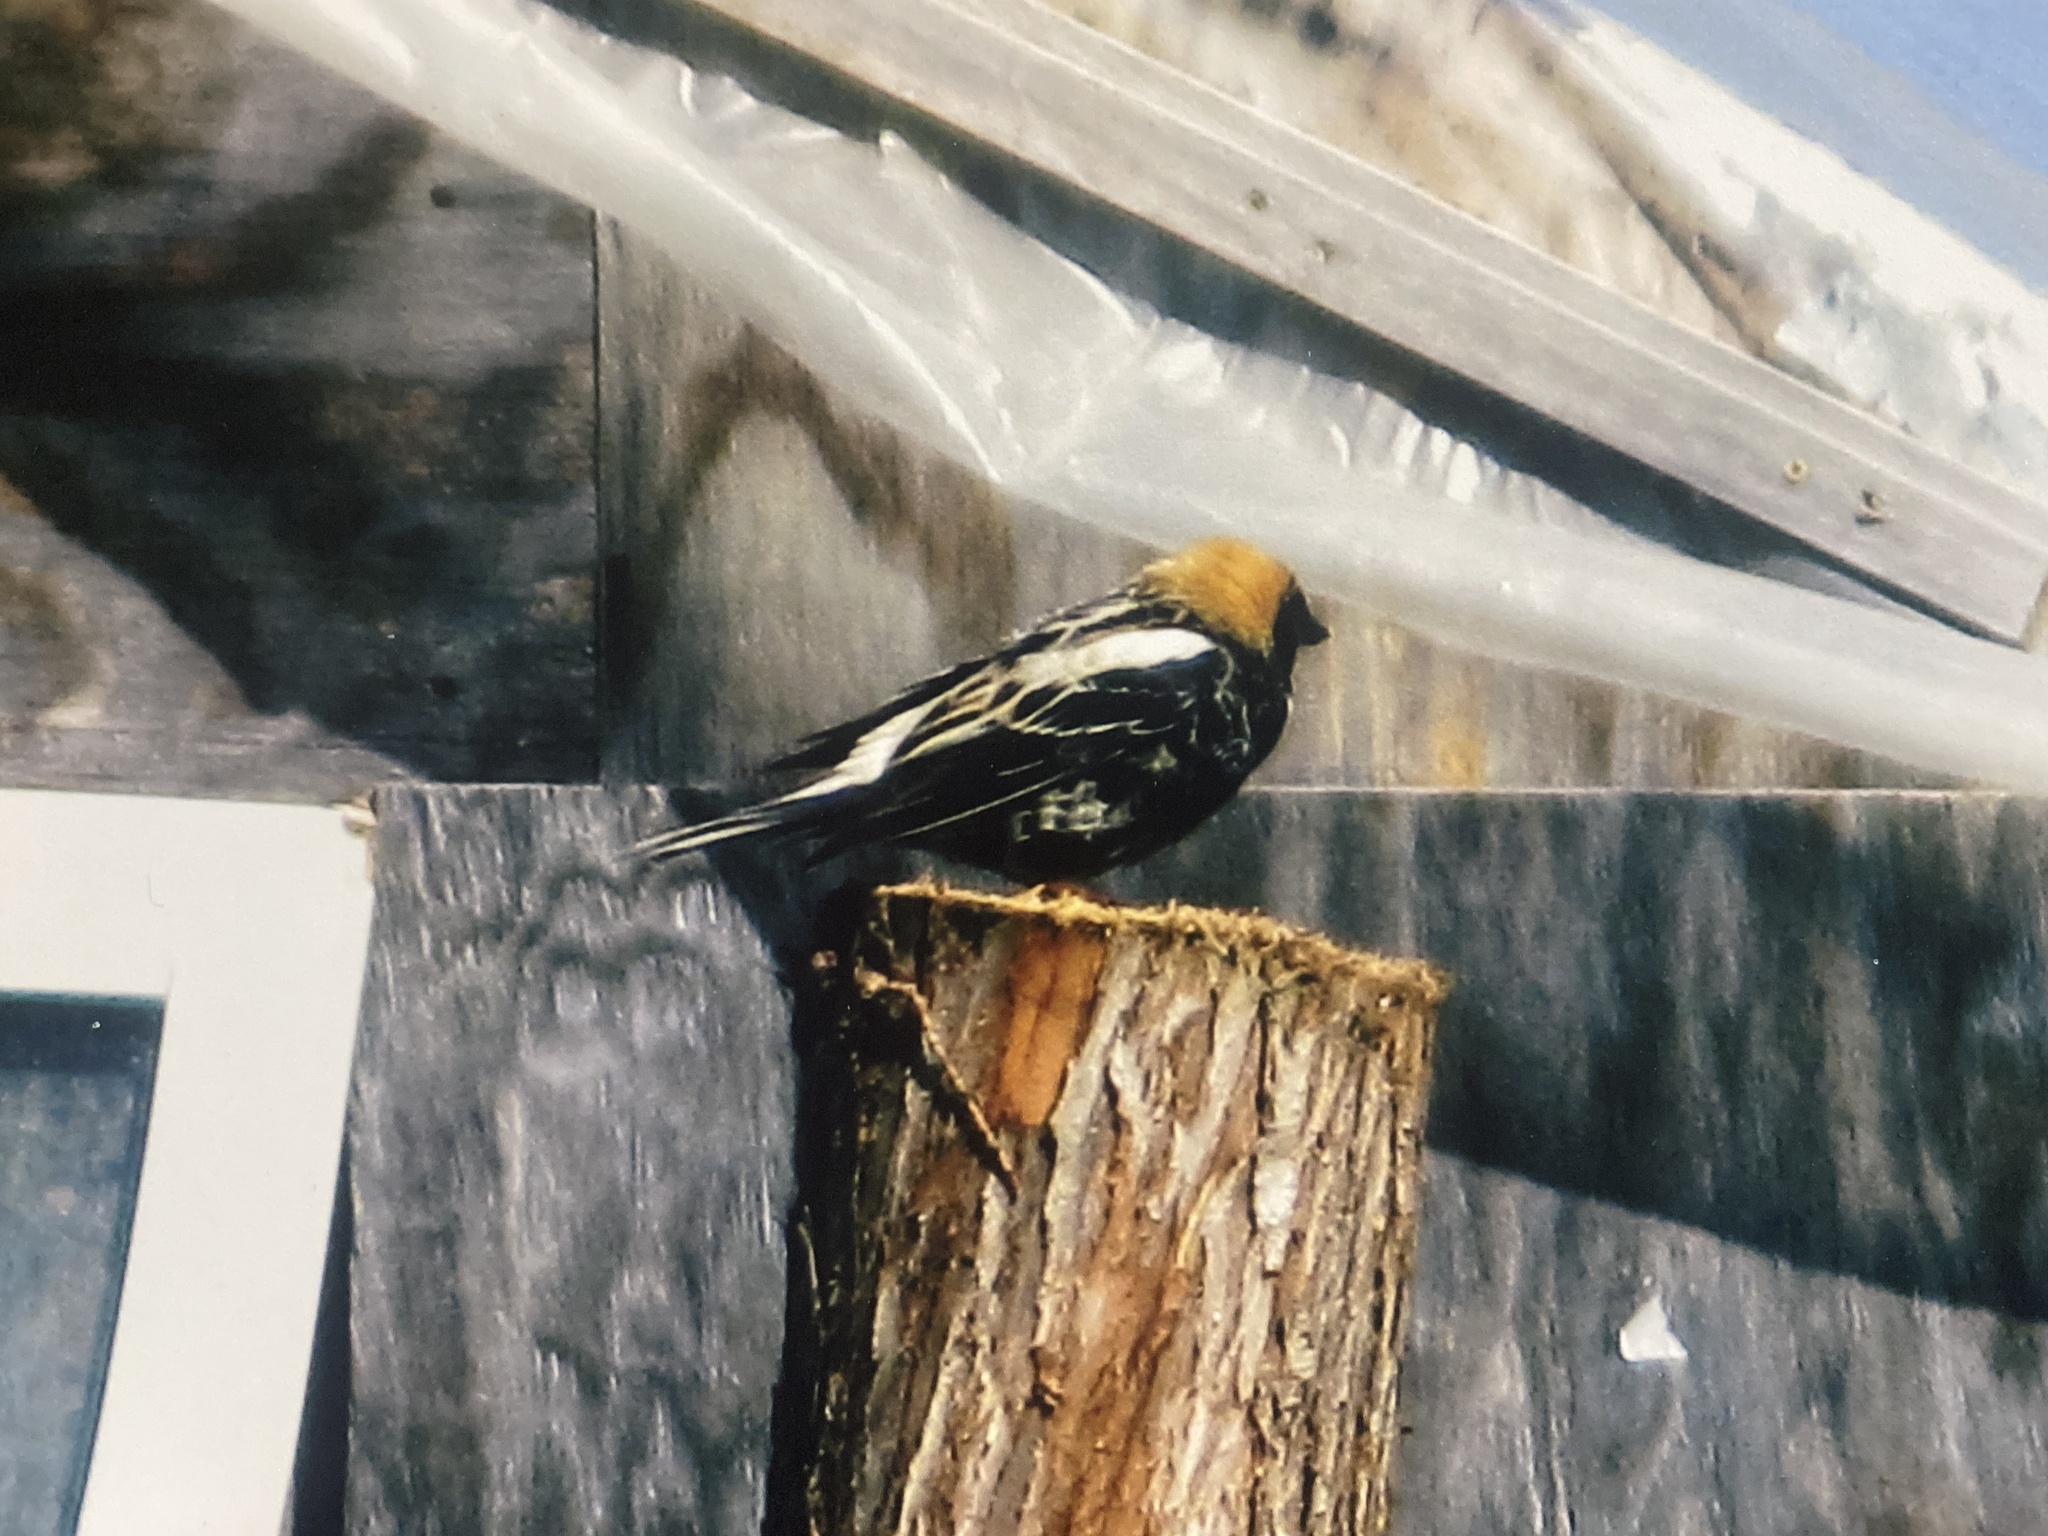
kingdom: Animalia
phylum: Chordata
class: Aves
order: Passeriformes
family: Icteridae
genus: Dolichonyx
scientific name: Dolichonyx oryzivorus
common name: Bobolink
